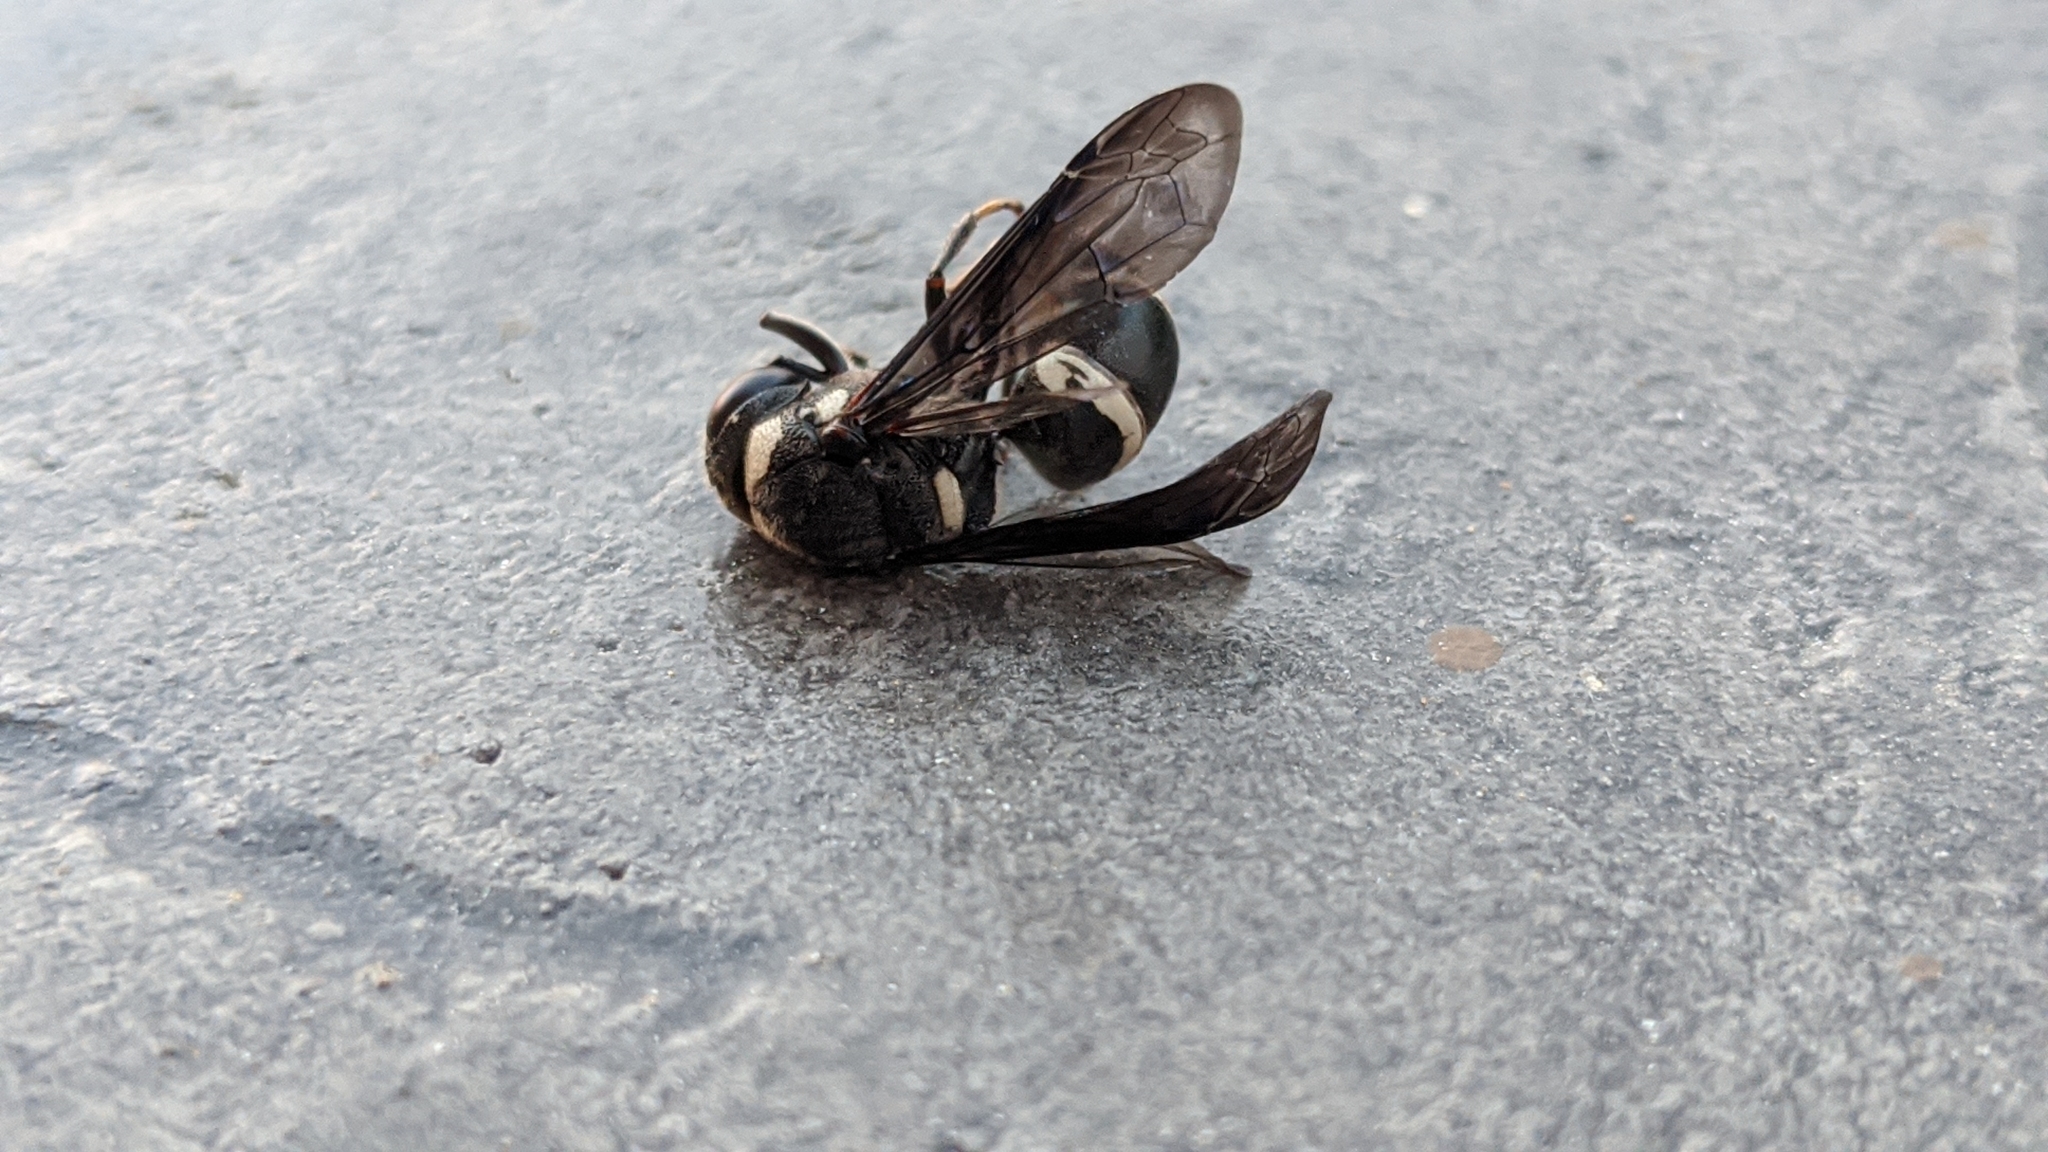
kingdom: Animalia
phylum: Arthropoda
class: Insecta
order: Hymenoptera
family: Eumenidae
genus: Monobia
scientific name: Monobia quadridens
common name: Four-toothed mason wasp
